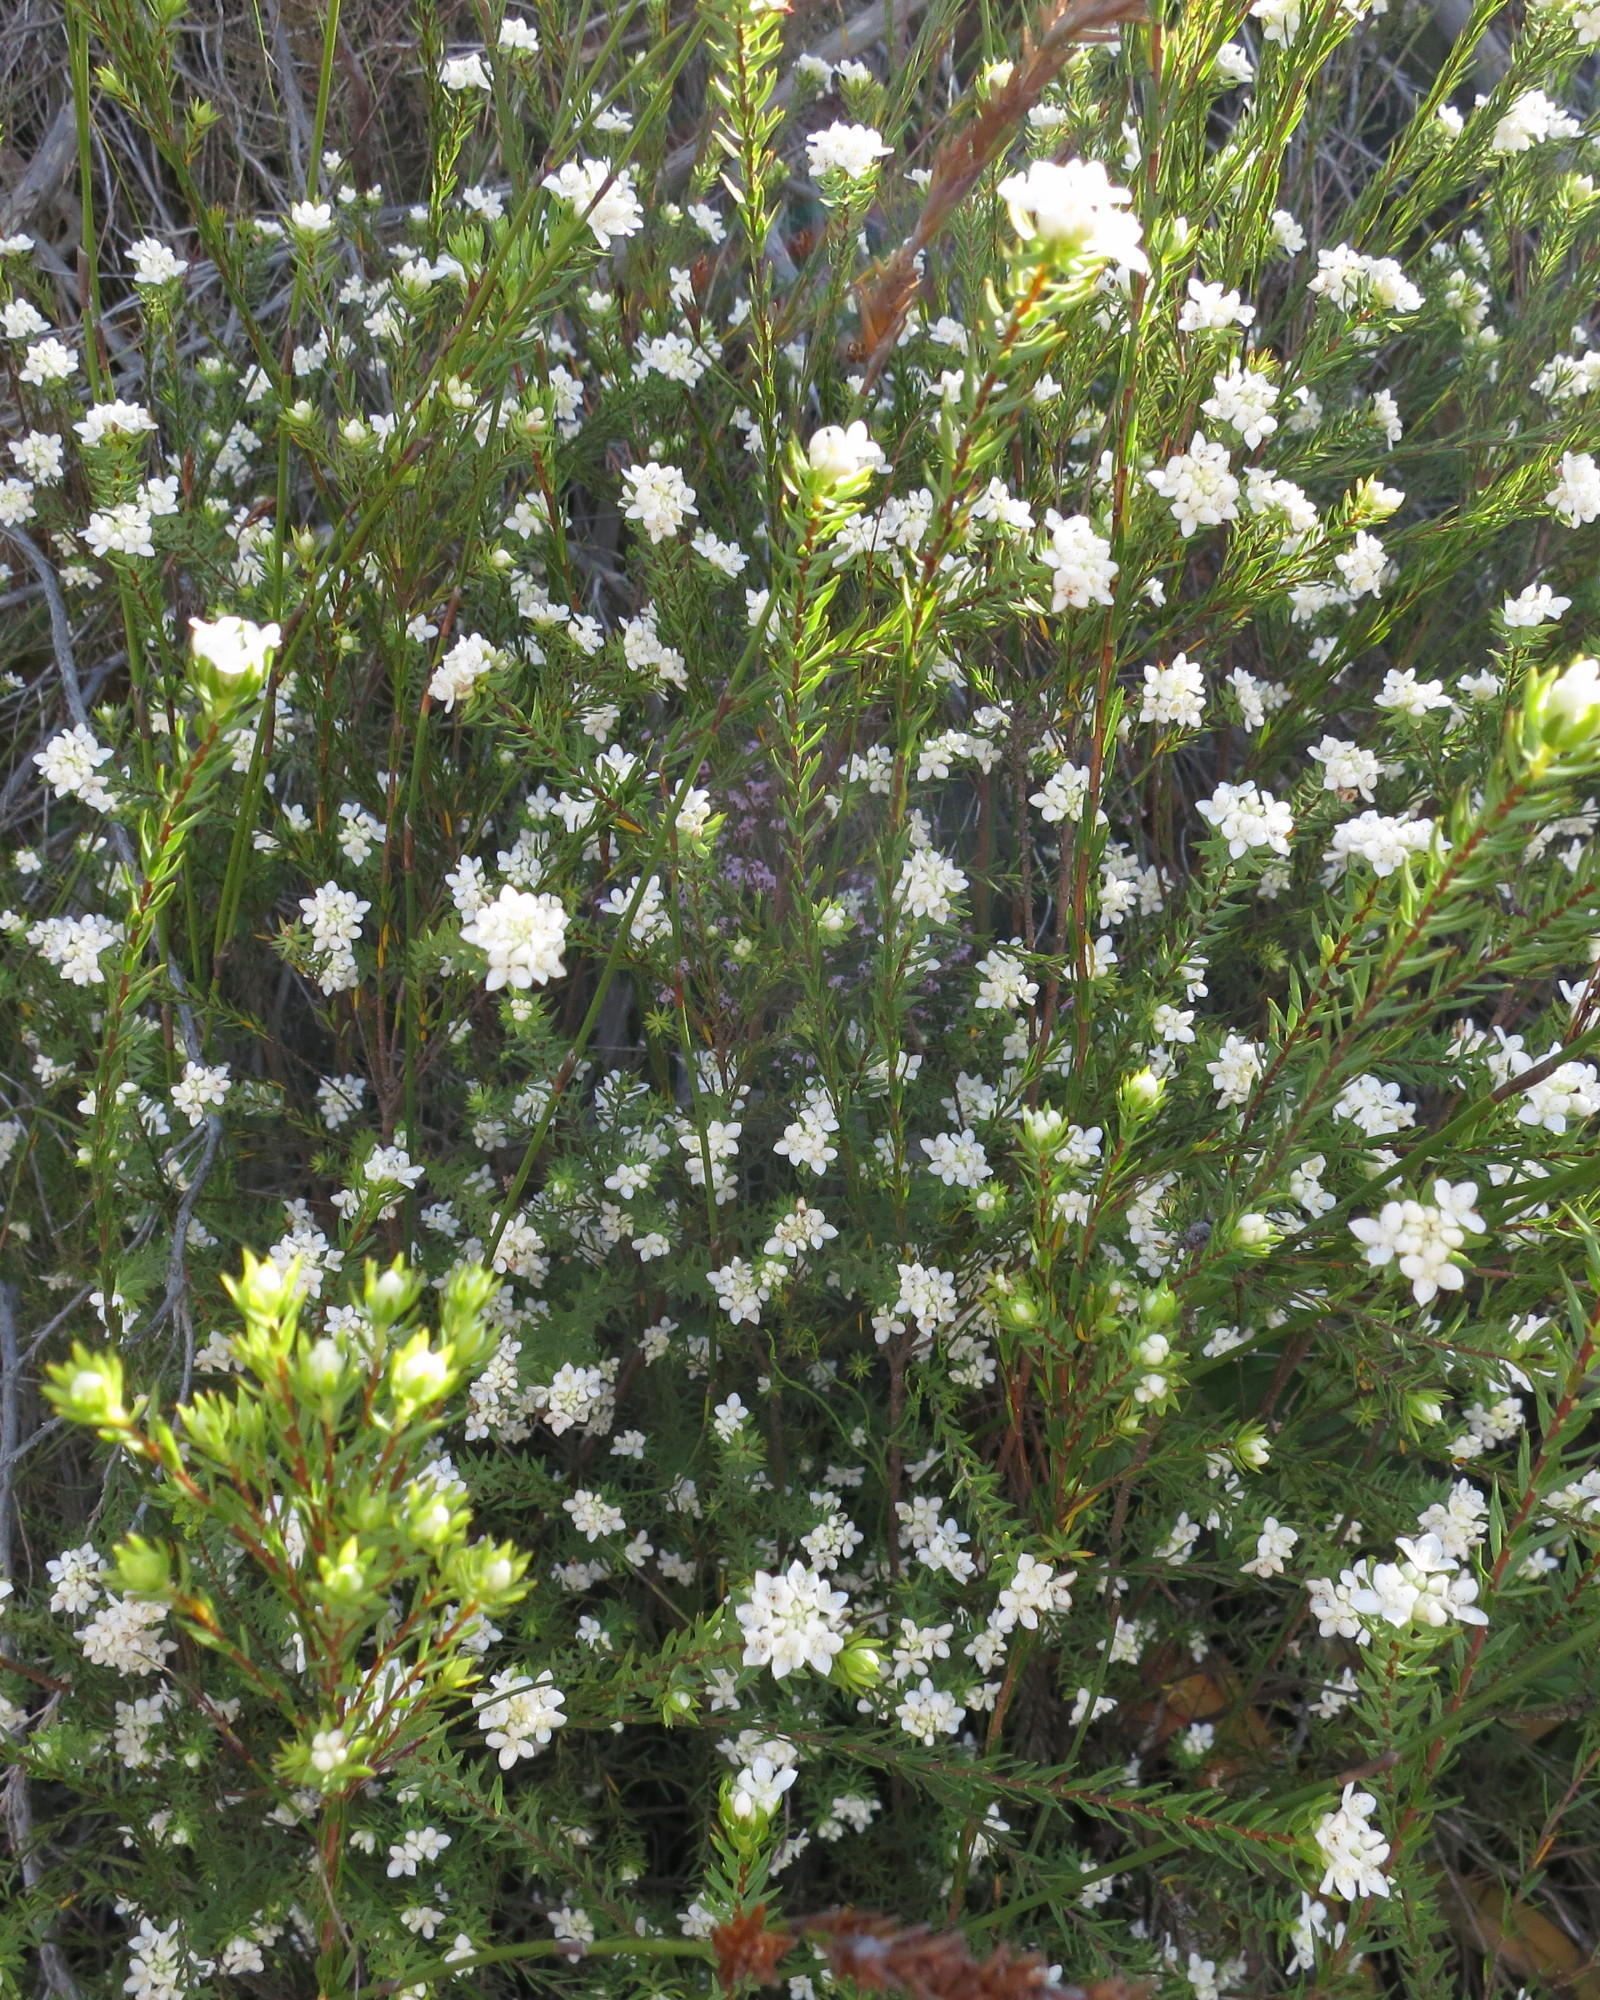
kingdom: Plantae
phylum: Tracheophyta
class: Magnoliopsida
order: Malvales
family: Thymelaeaceae
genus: Lachnaea
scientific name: Lachnaea diosmoides
